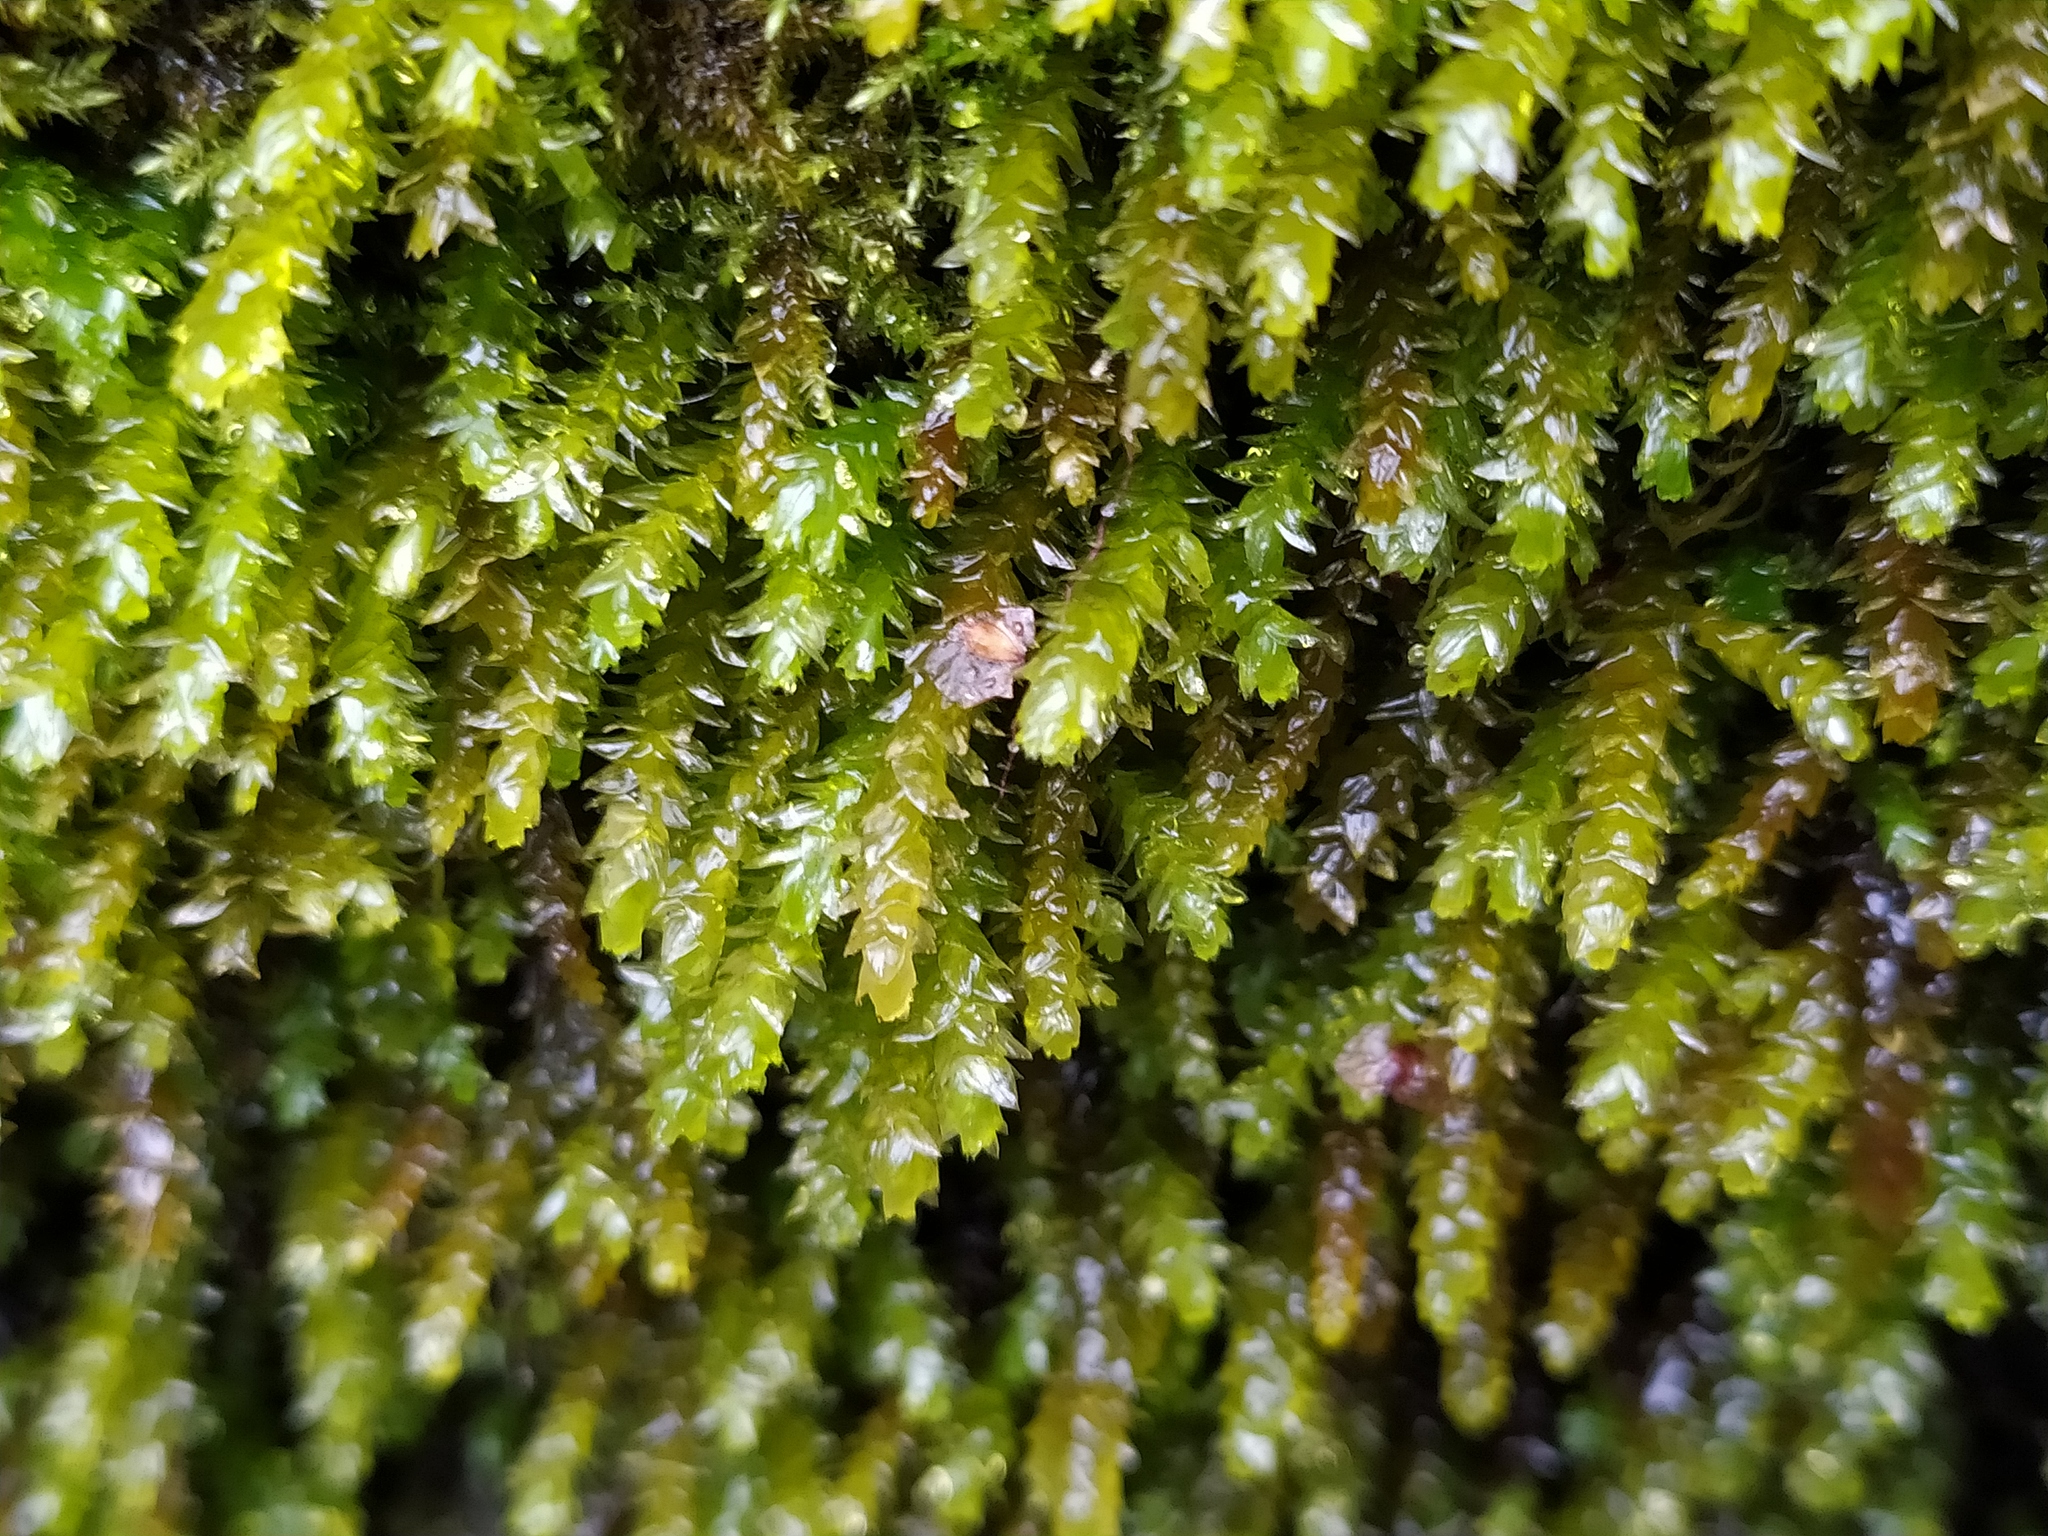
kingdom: Plantae
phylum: Bryophyta
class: Bryopsida
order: Hypnales
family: Brachytheciaceae
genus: Rhynchostegium
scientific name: Rhynchostegium riparioides
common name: Platyhypnidium moss
